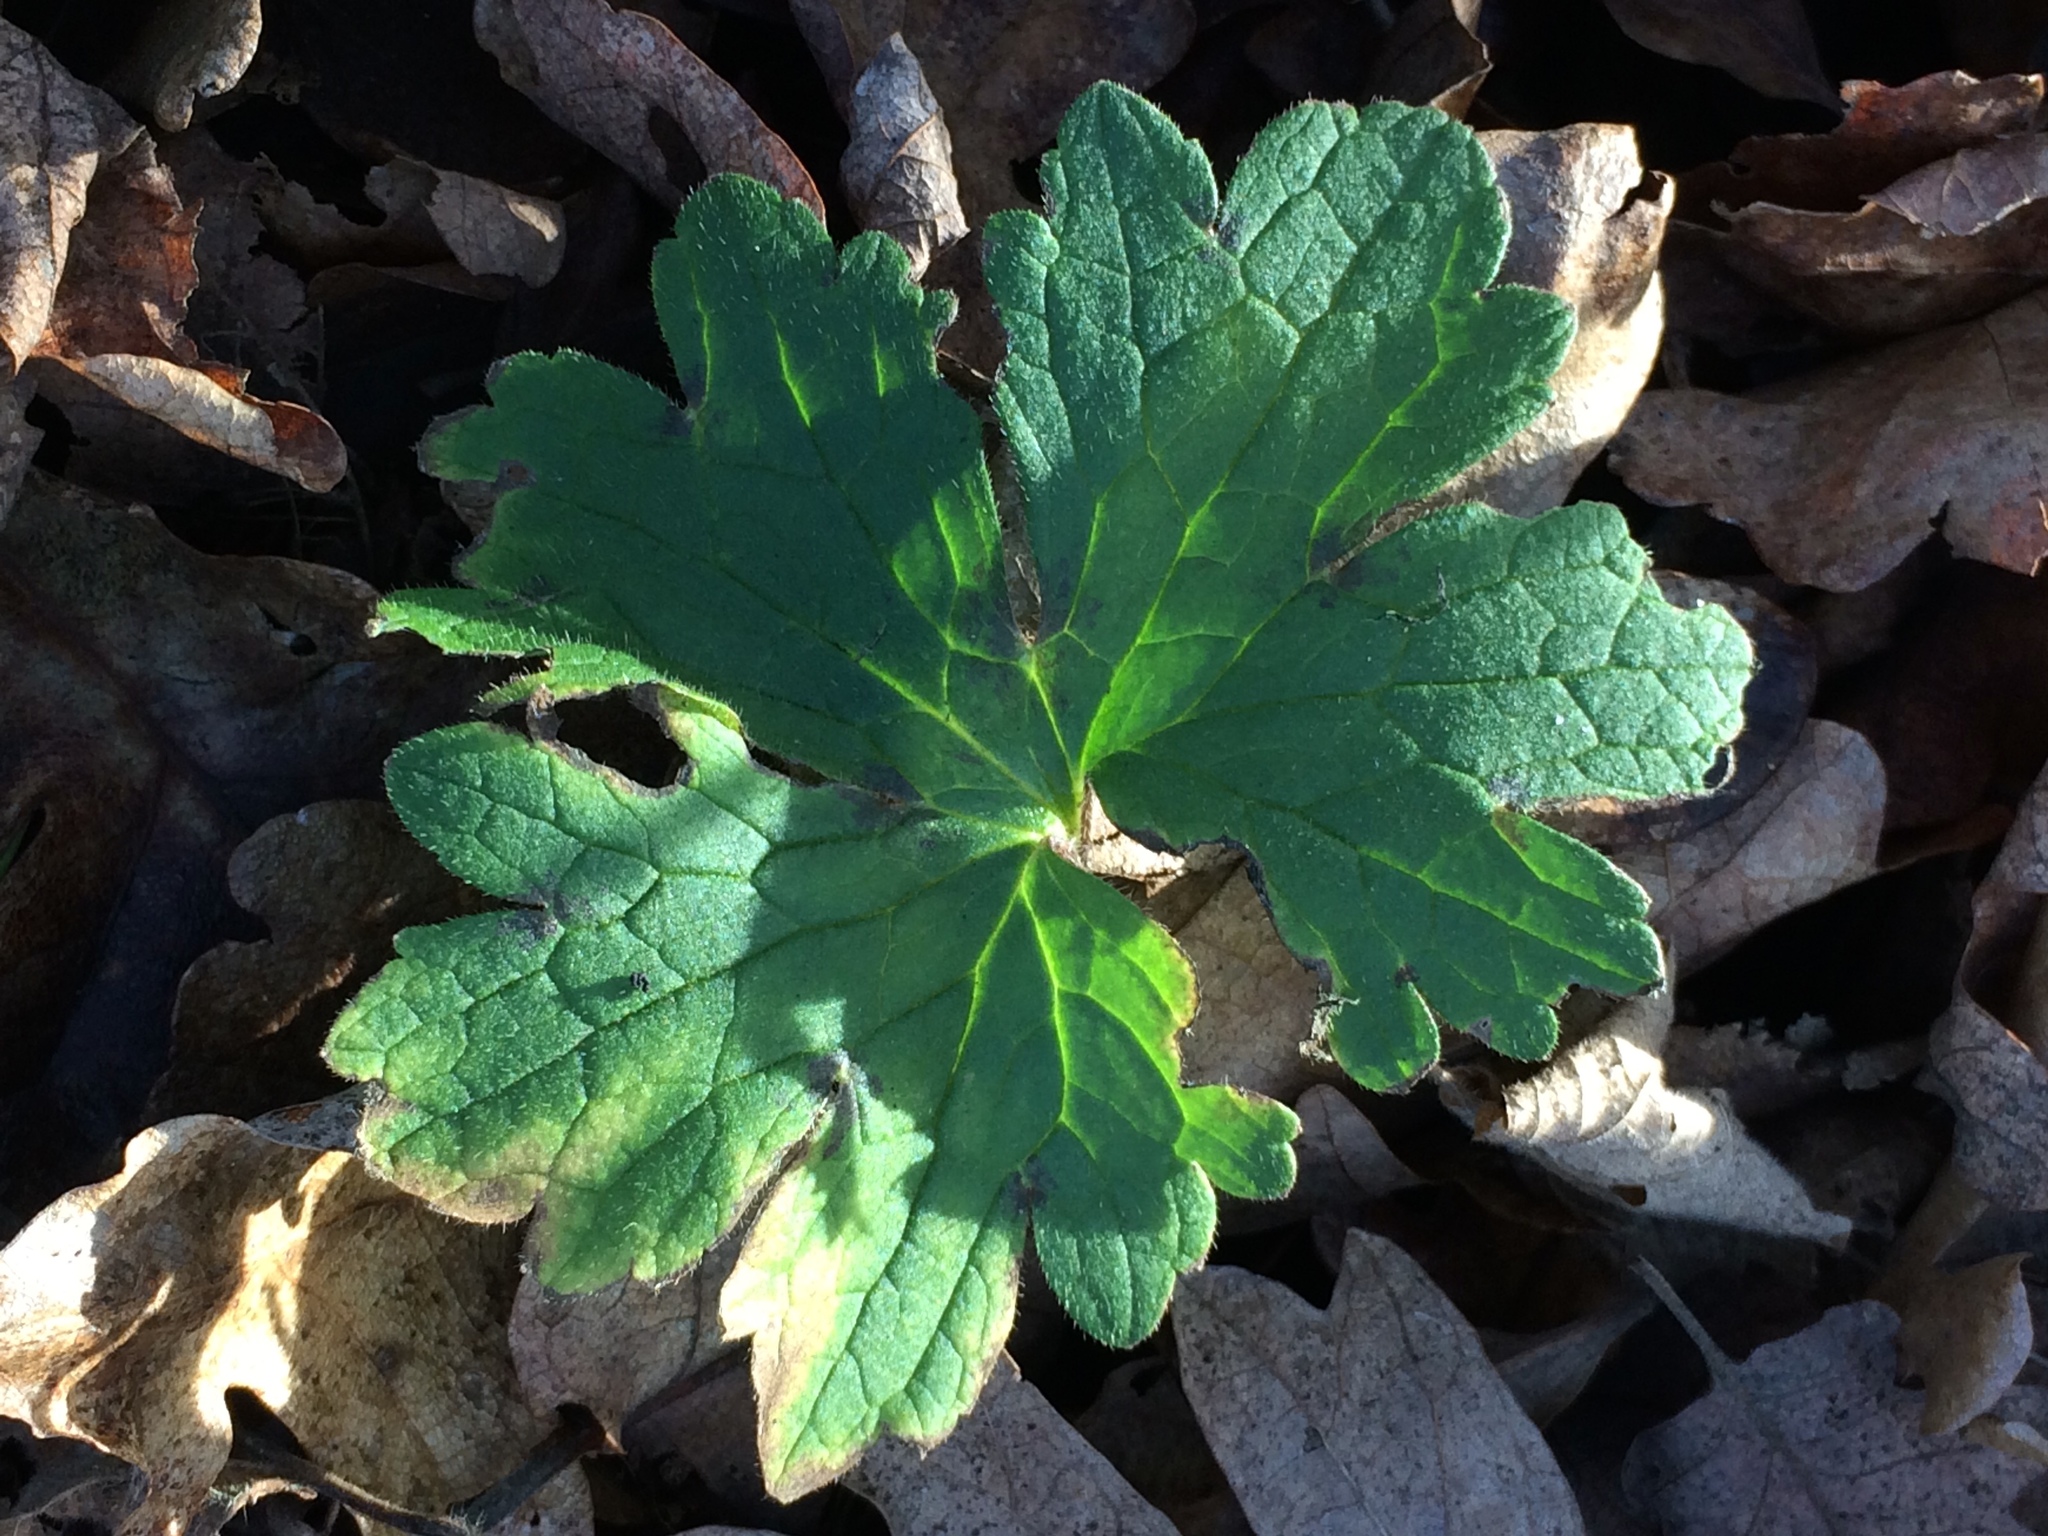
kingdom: Plantae
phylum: Tracheophyta
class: Magnoliopsida
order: Ranunculales
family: Ranunculaceae
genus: Ranunculus
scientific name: Ranunculus repens
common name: Creeping buttercup
